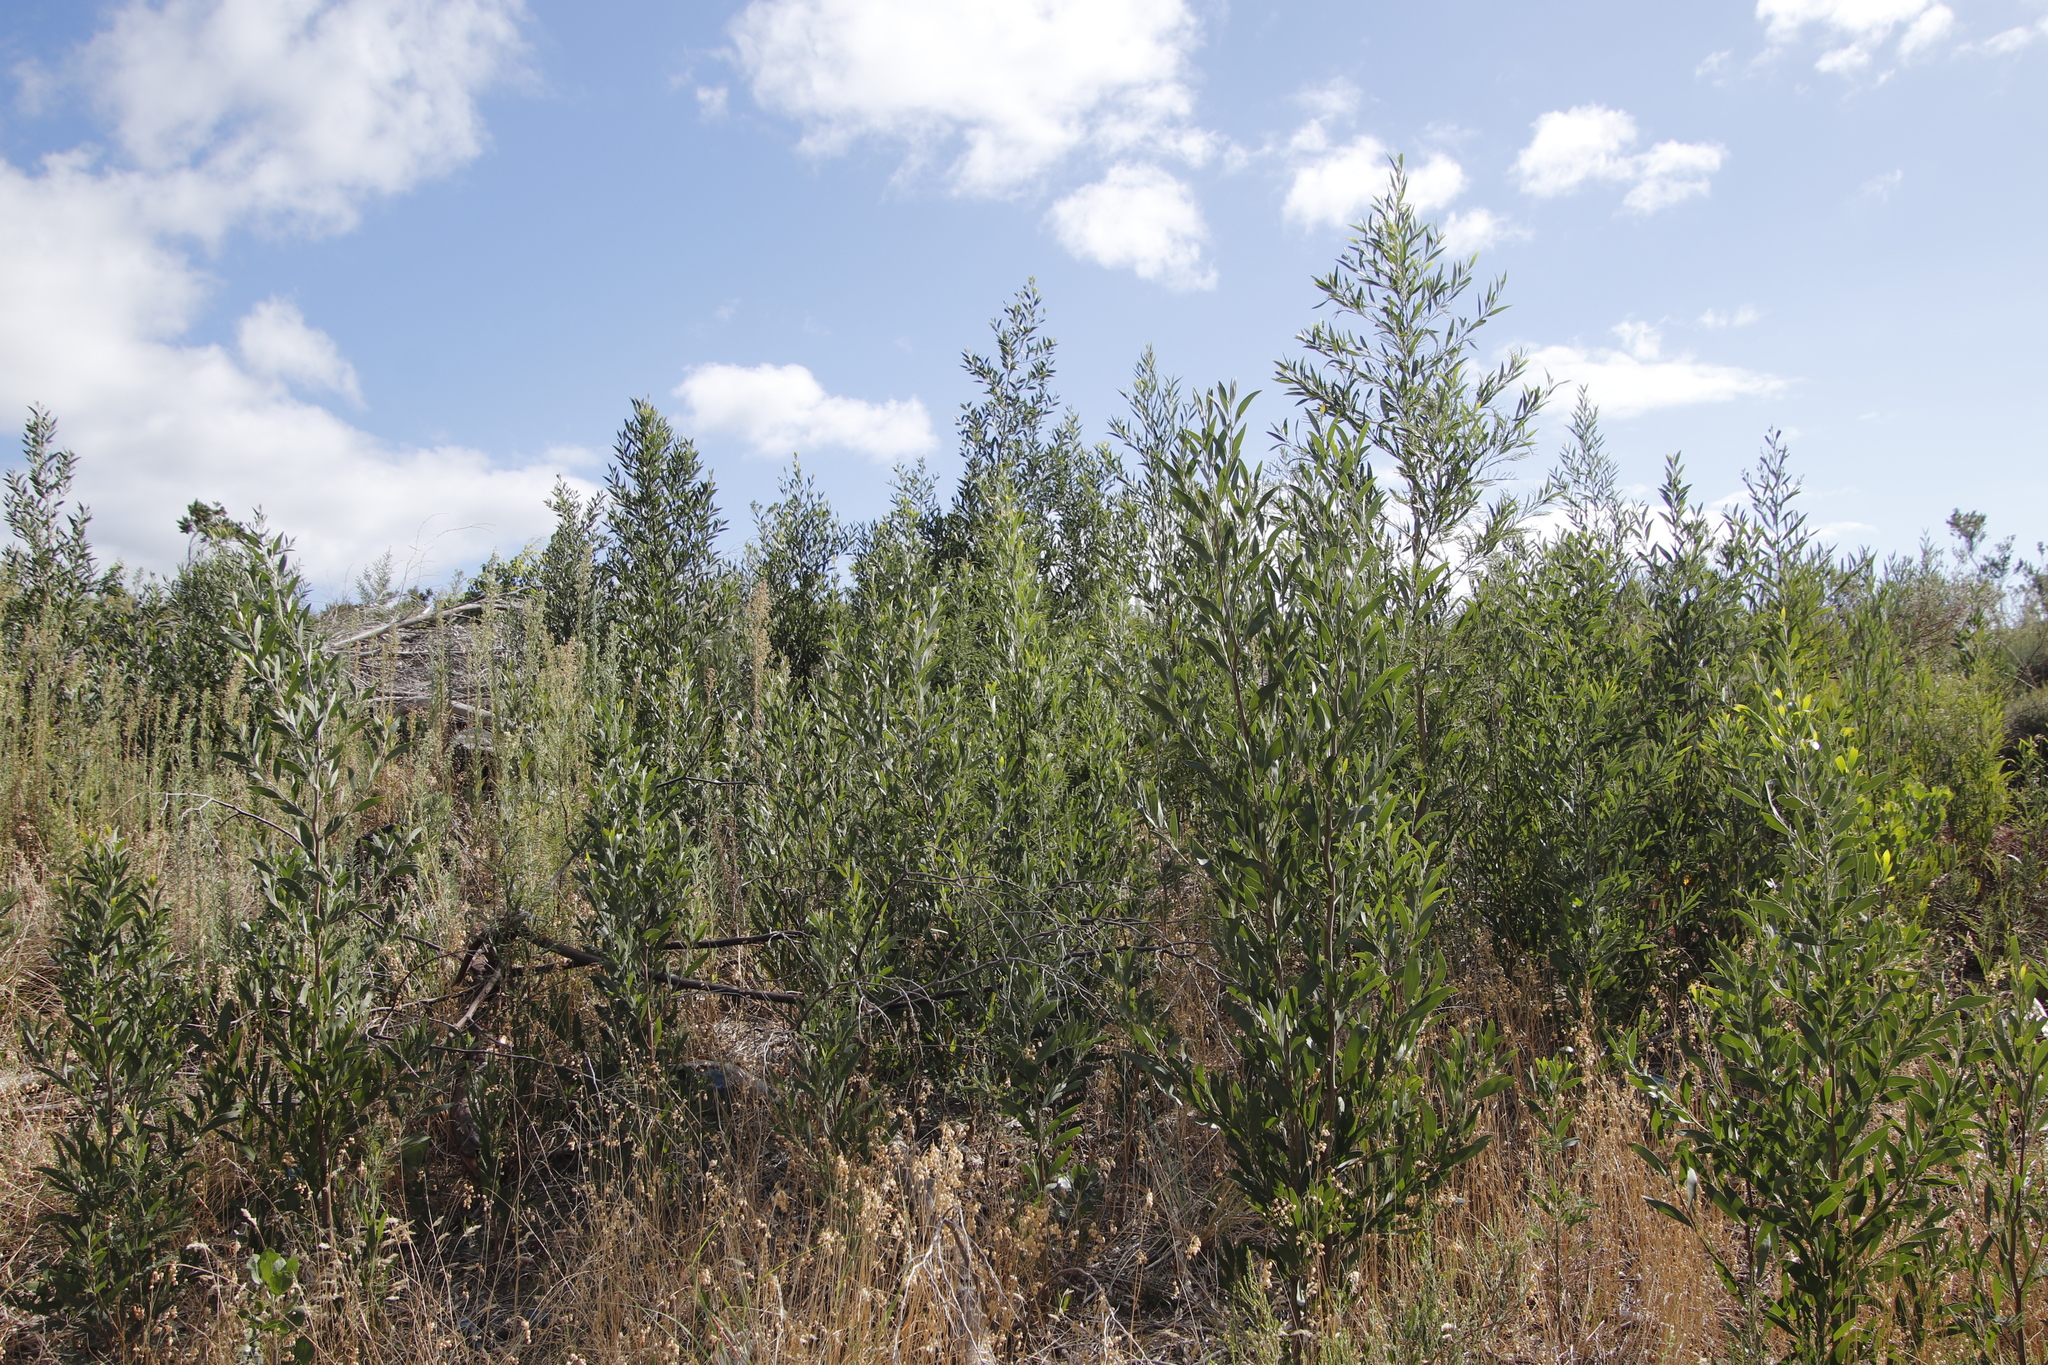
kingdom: Plantae
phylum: Tracheophyta
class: Magnoliopsida
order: Fabales
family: Fabaceae
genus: Acacia
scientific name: Acacia melanoxylon
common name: Blackwood
